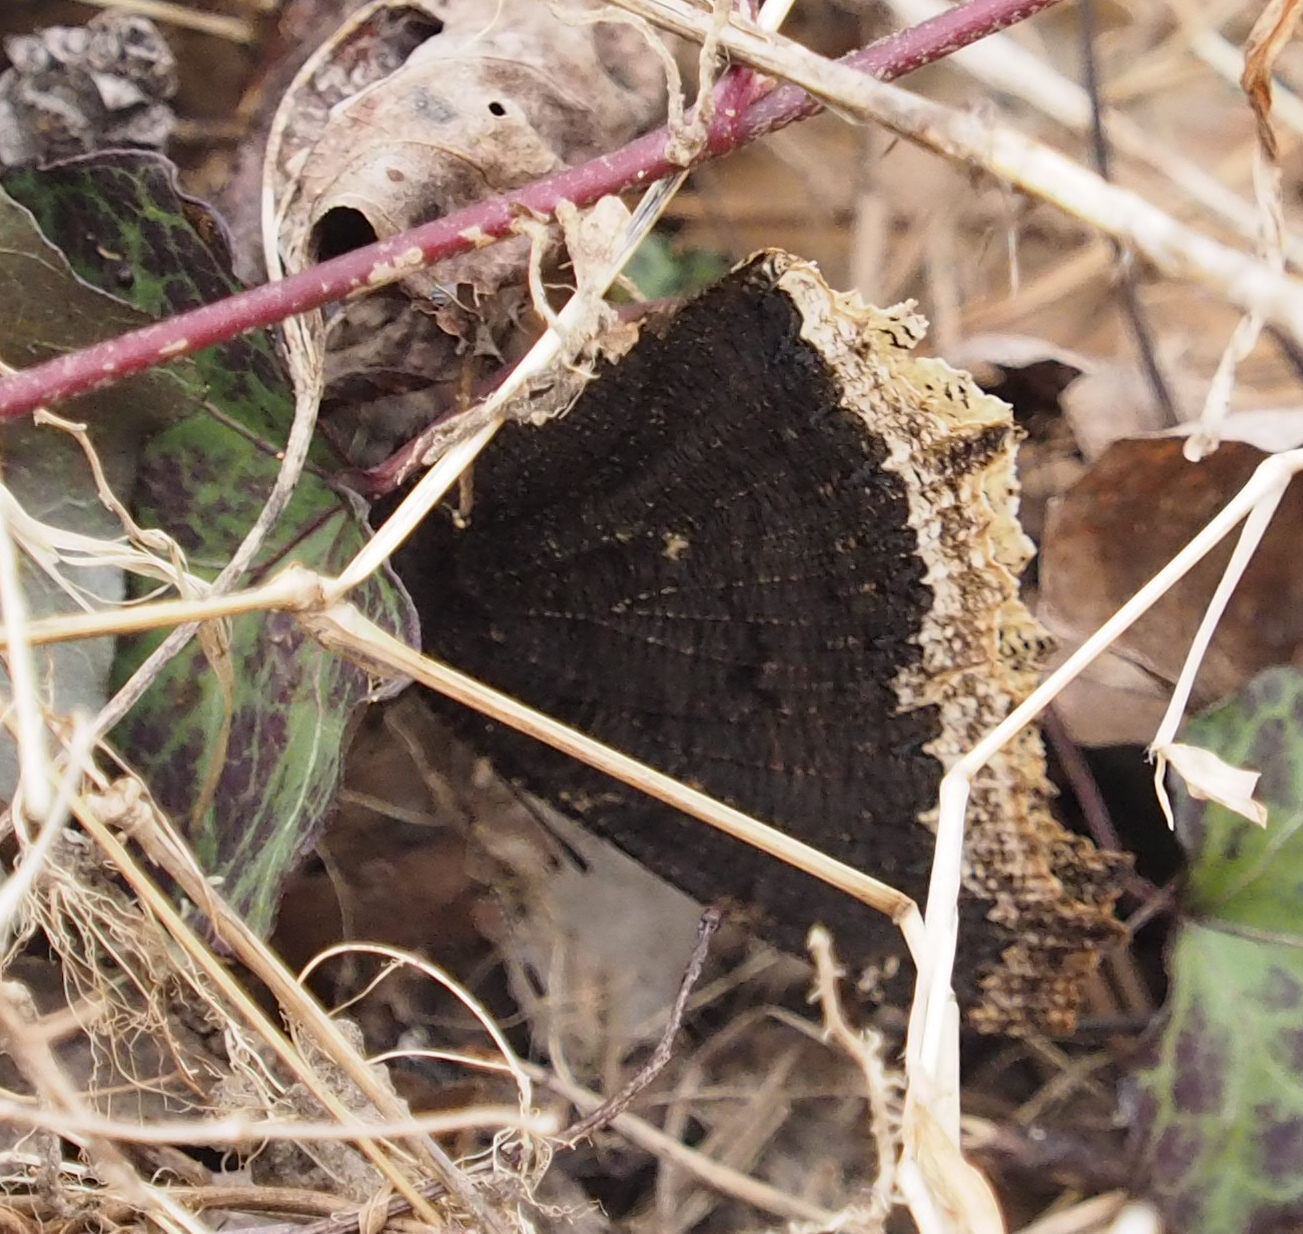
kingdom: Animalia
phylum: Arthropoda
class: Insecta
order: Lepidoptera
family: Nymphalidae
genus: Nymphalis
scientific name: Nymphalis antiopa
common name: Camberwell beauty
